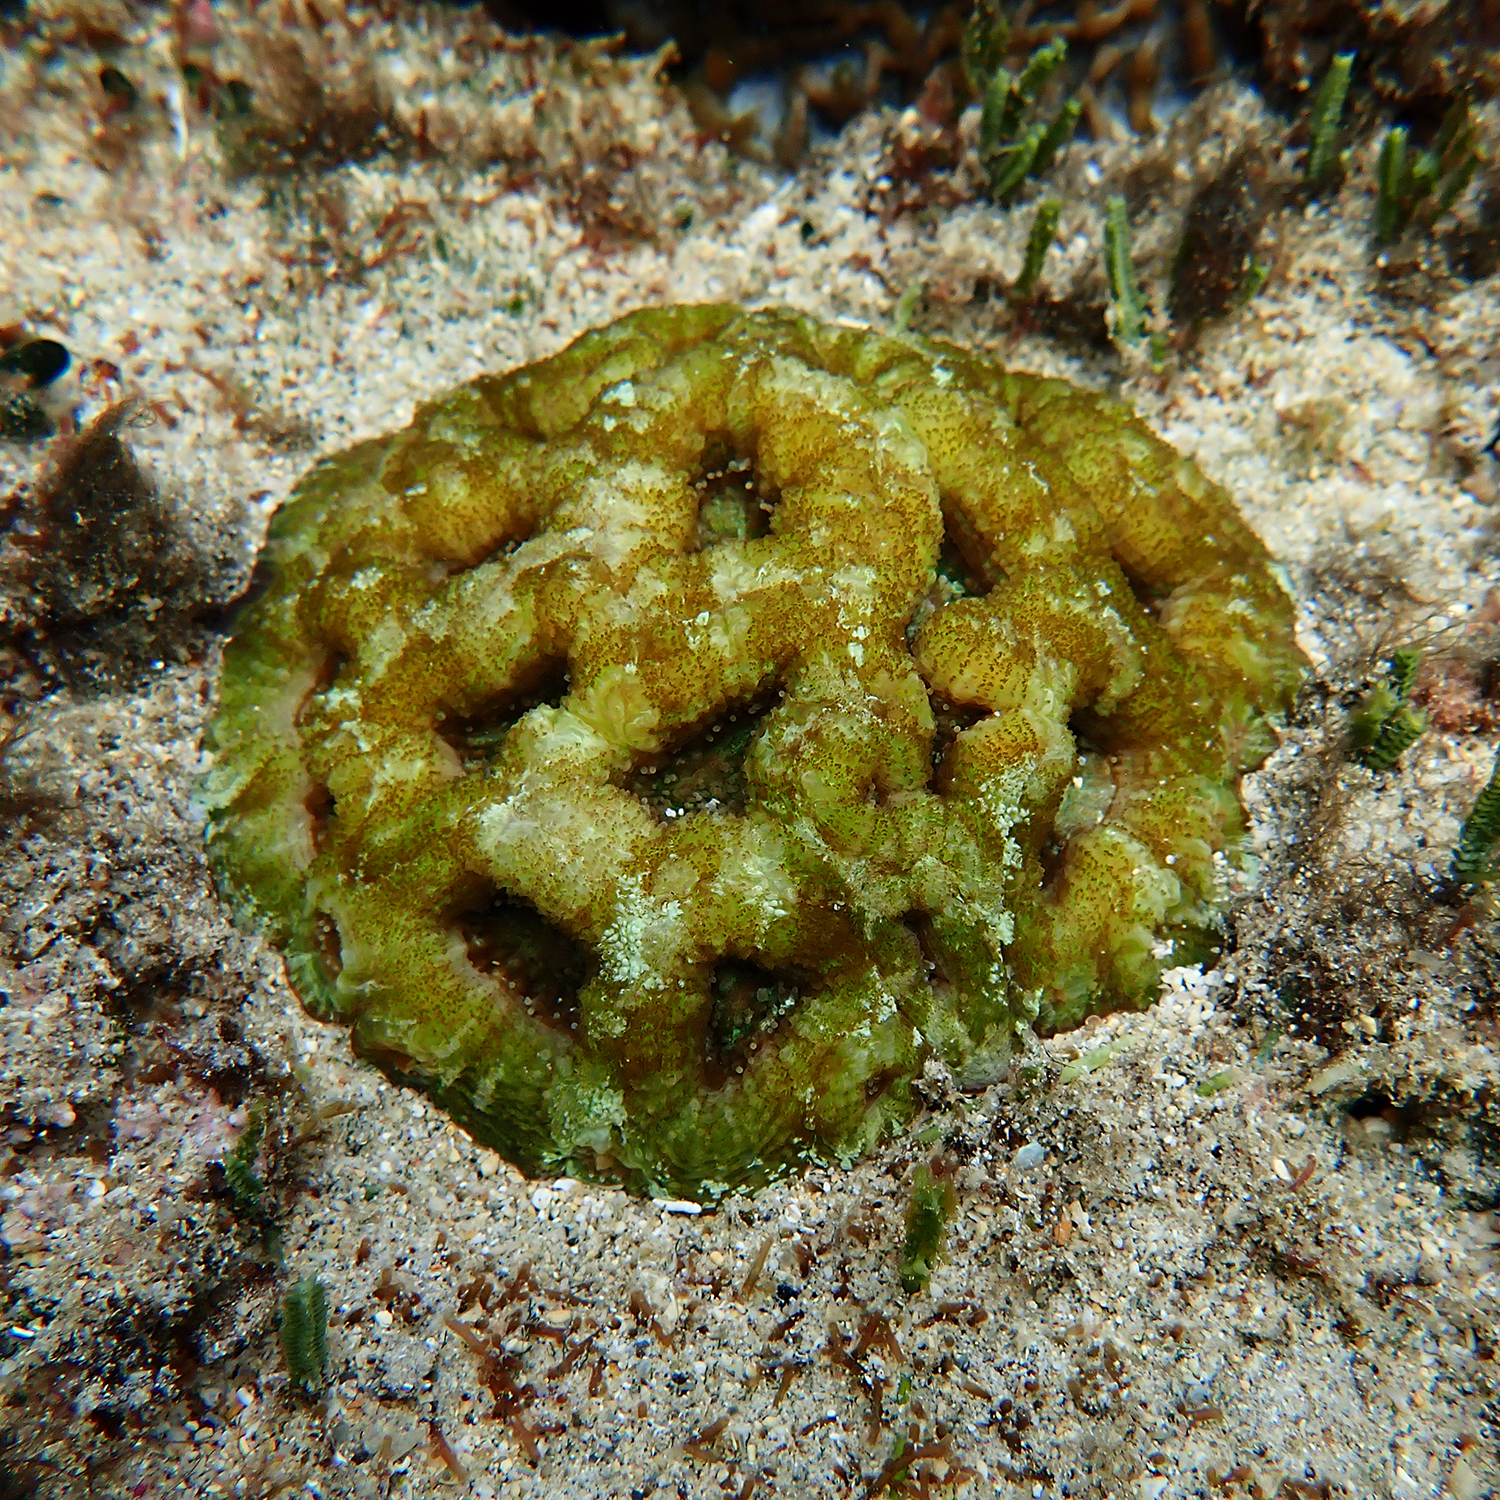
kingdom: Animalia
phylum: Cnidaria
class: Anthozoa
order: Scleractinia
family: Lobophylliidae
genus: Homophyllia
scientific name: Homophyllia bowerbanki
